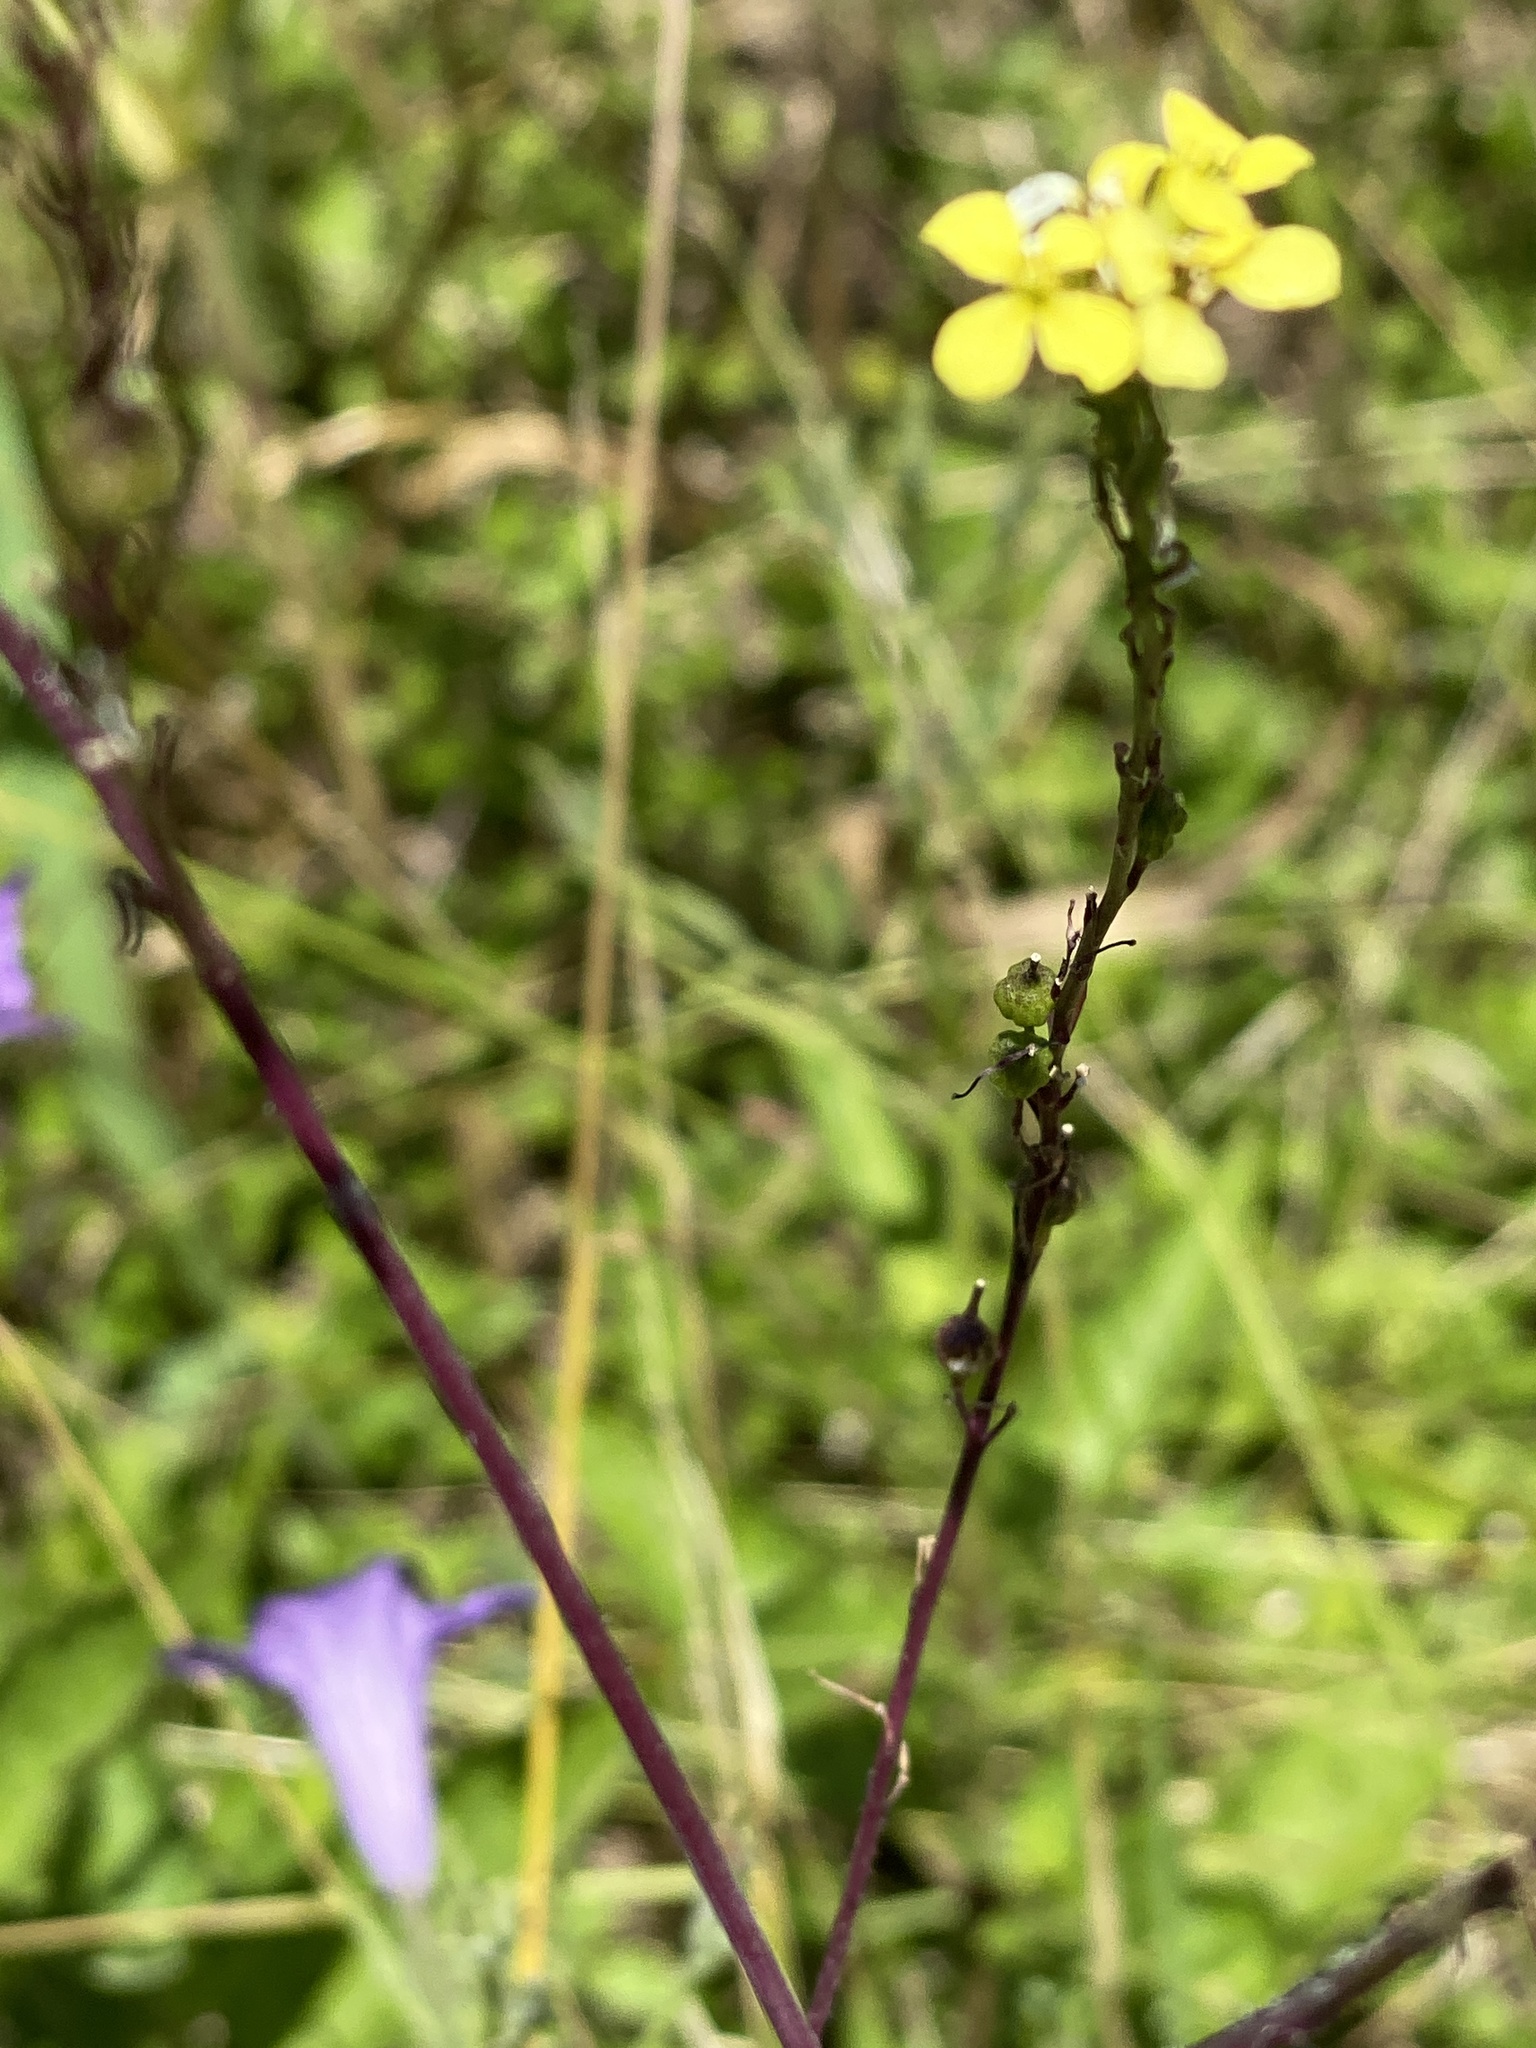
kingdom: Plantae
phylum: Tracheophyta
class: Magnoliopsida
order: Brassicales
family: Brassicaceae
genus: Rapistrum
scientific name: Rapistrum rugosum
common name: Annual bastardcabbage
